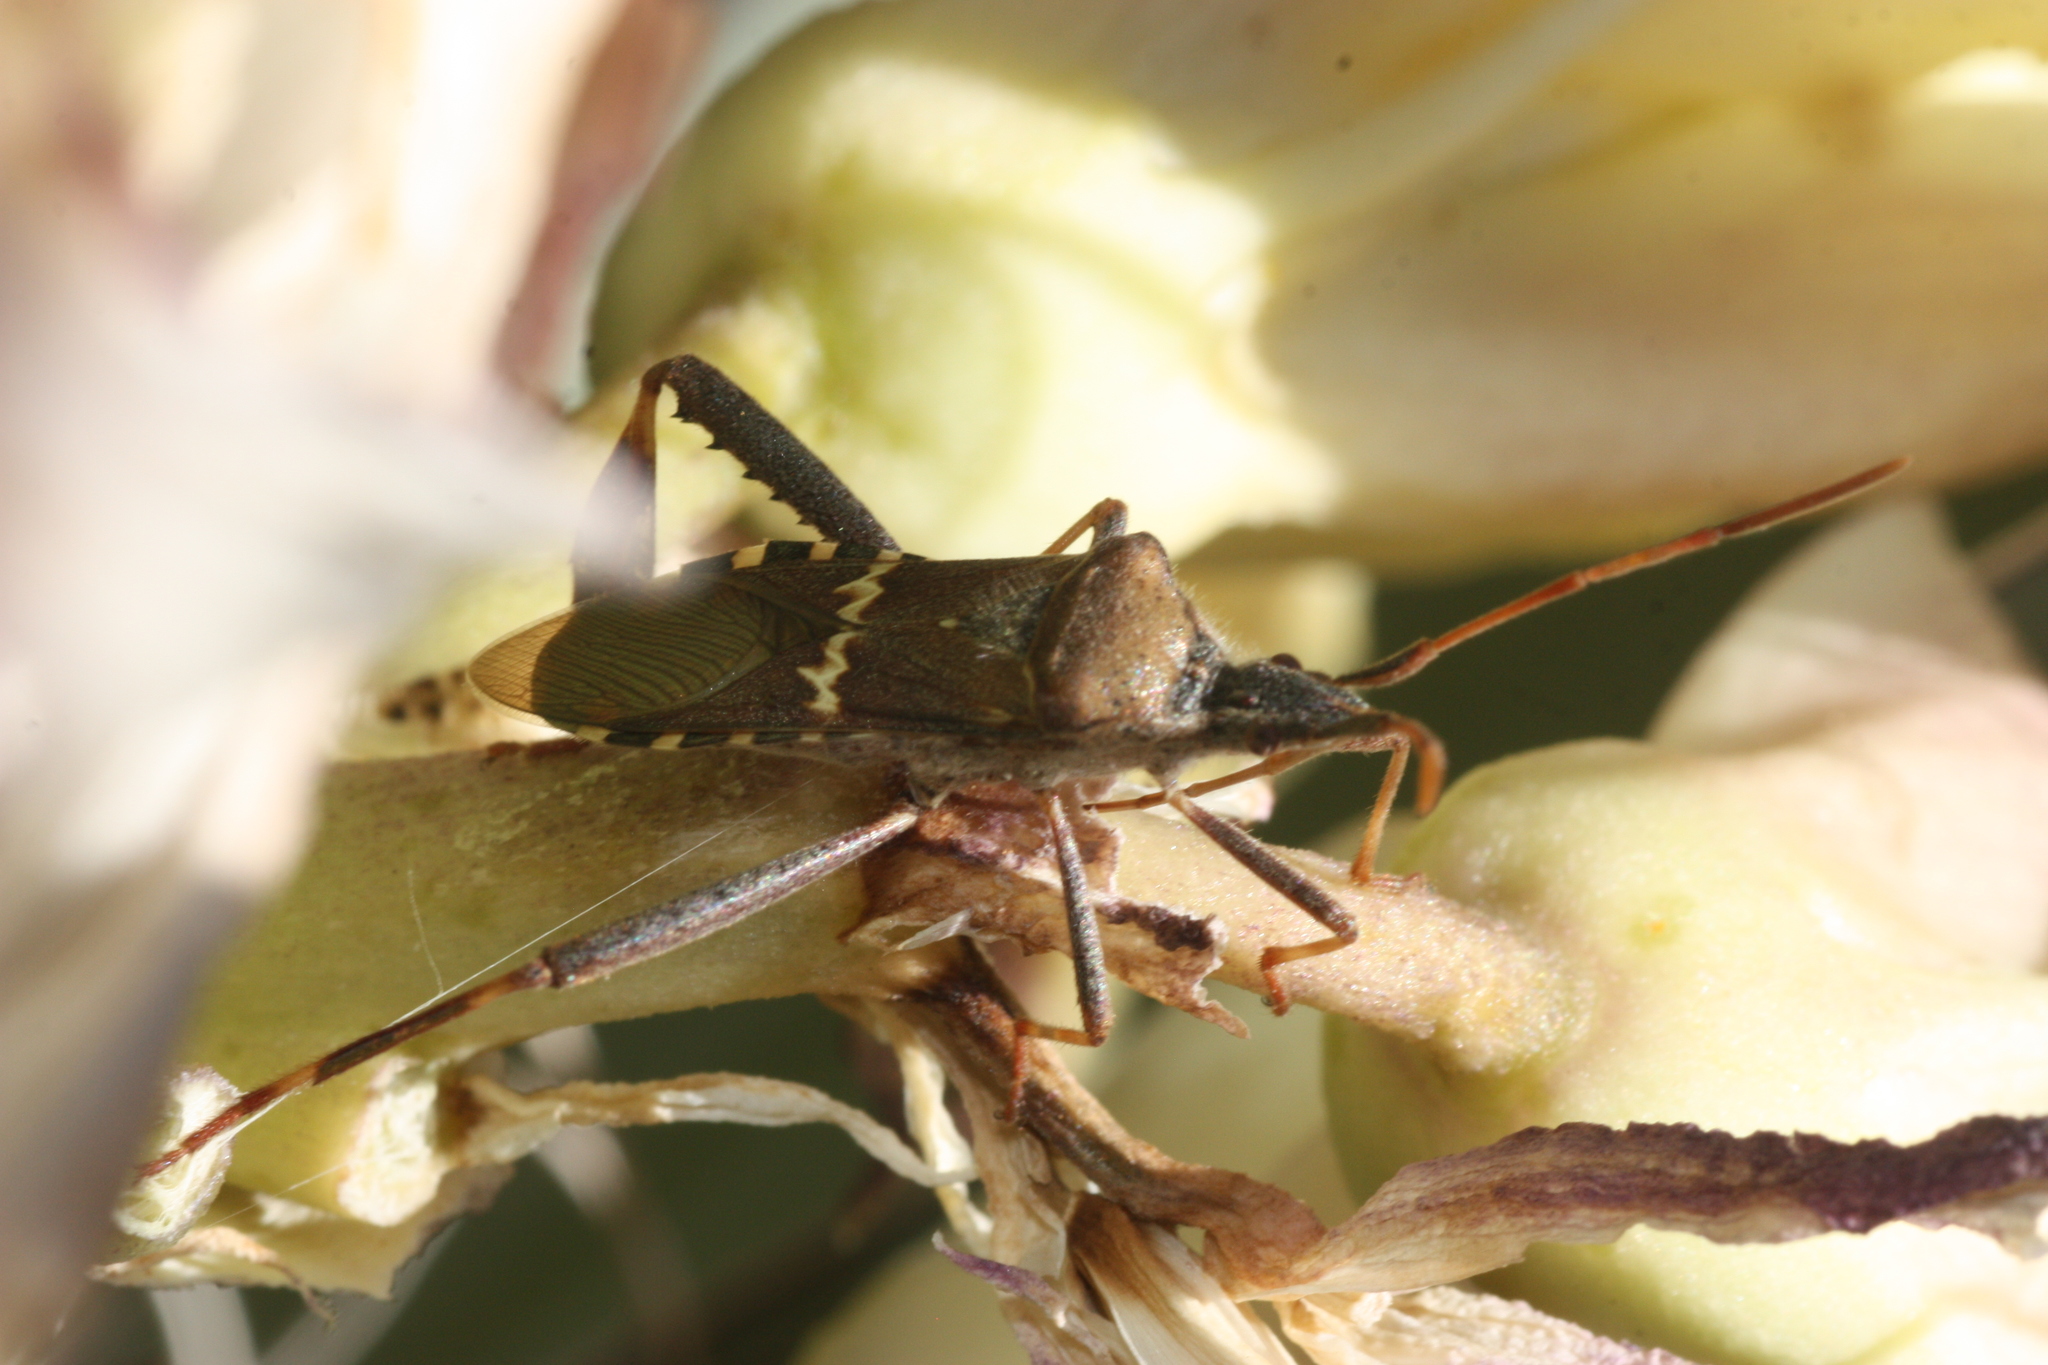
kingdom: Animalia
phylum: Arthropoda
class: Insecta
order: Hemiptera
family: Coreidae
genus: Leptoglossus
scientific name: Leptoglossus clypealis
